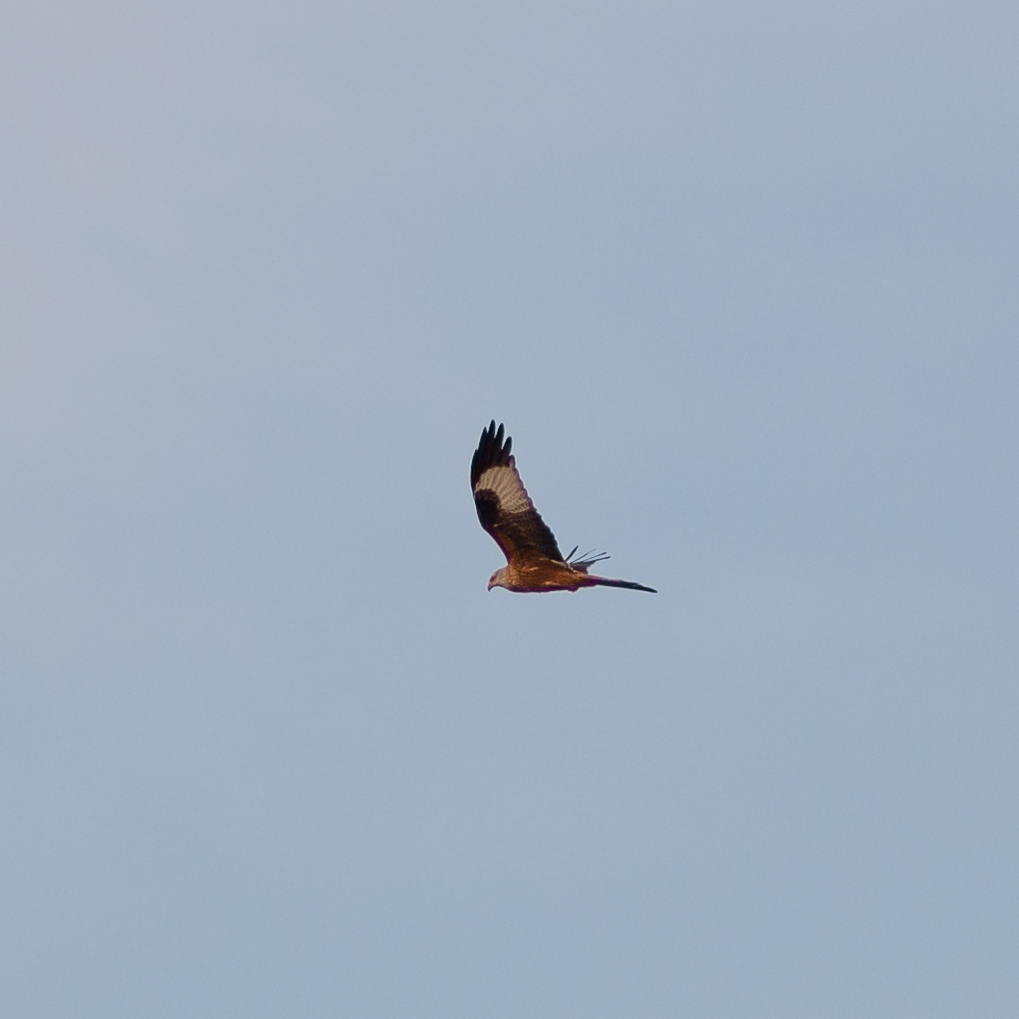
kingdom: Animalia
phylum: Chordata
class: Aves
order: Accipitriformes
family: Accipitridae
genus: Milvus
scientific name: Milvus milvus
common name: Red kite
